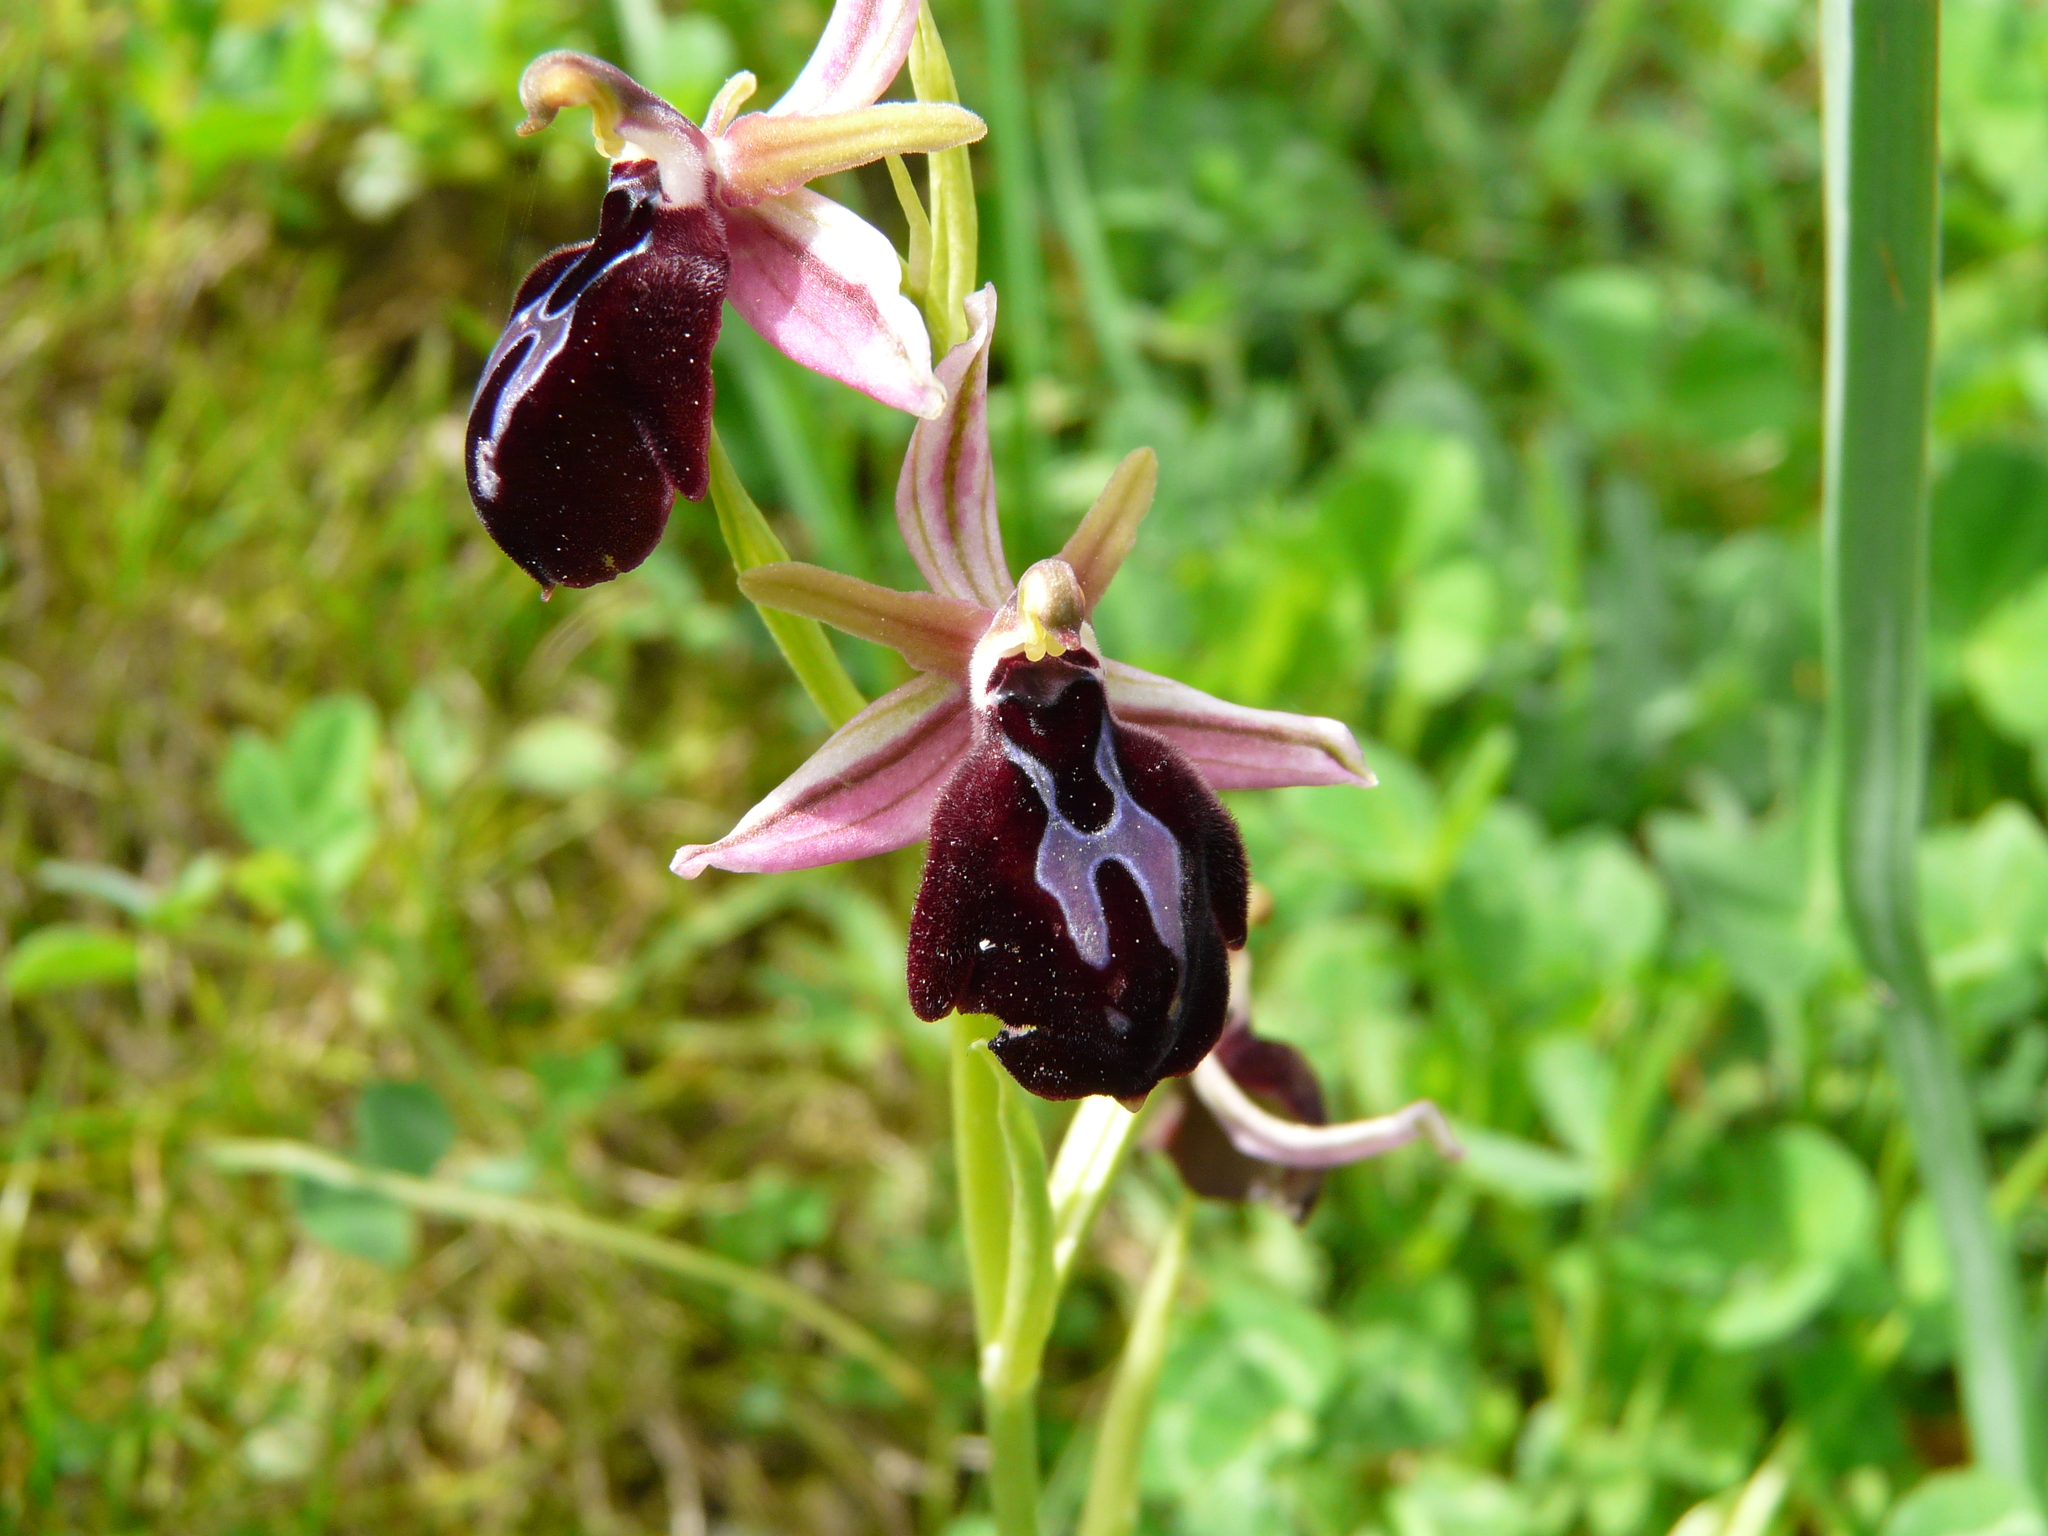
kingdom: Plantae
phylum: Tracheophyta
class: Liliopsida
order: Asparagales
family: Orchidaceae
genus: Ophrys
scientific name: Ophrys sphegodes
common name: Early spider-orchid
